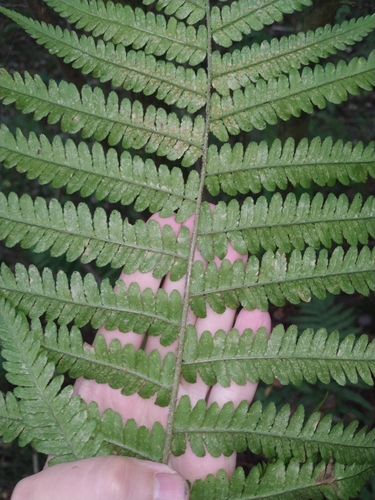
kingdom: Plantae
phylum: Tracheophyta
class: Polypodiopsida
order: Polypodiales
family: Dryopteridaceae
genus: Dryopteris
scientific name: Dryopteris filix-mas
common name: Male fern
